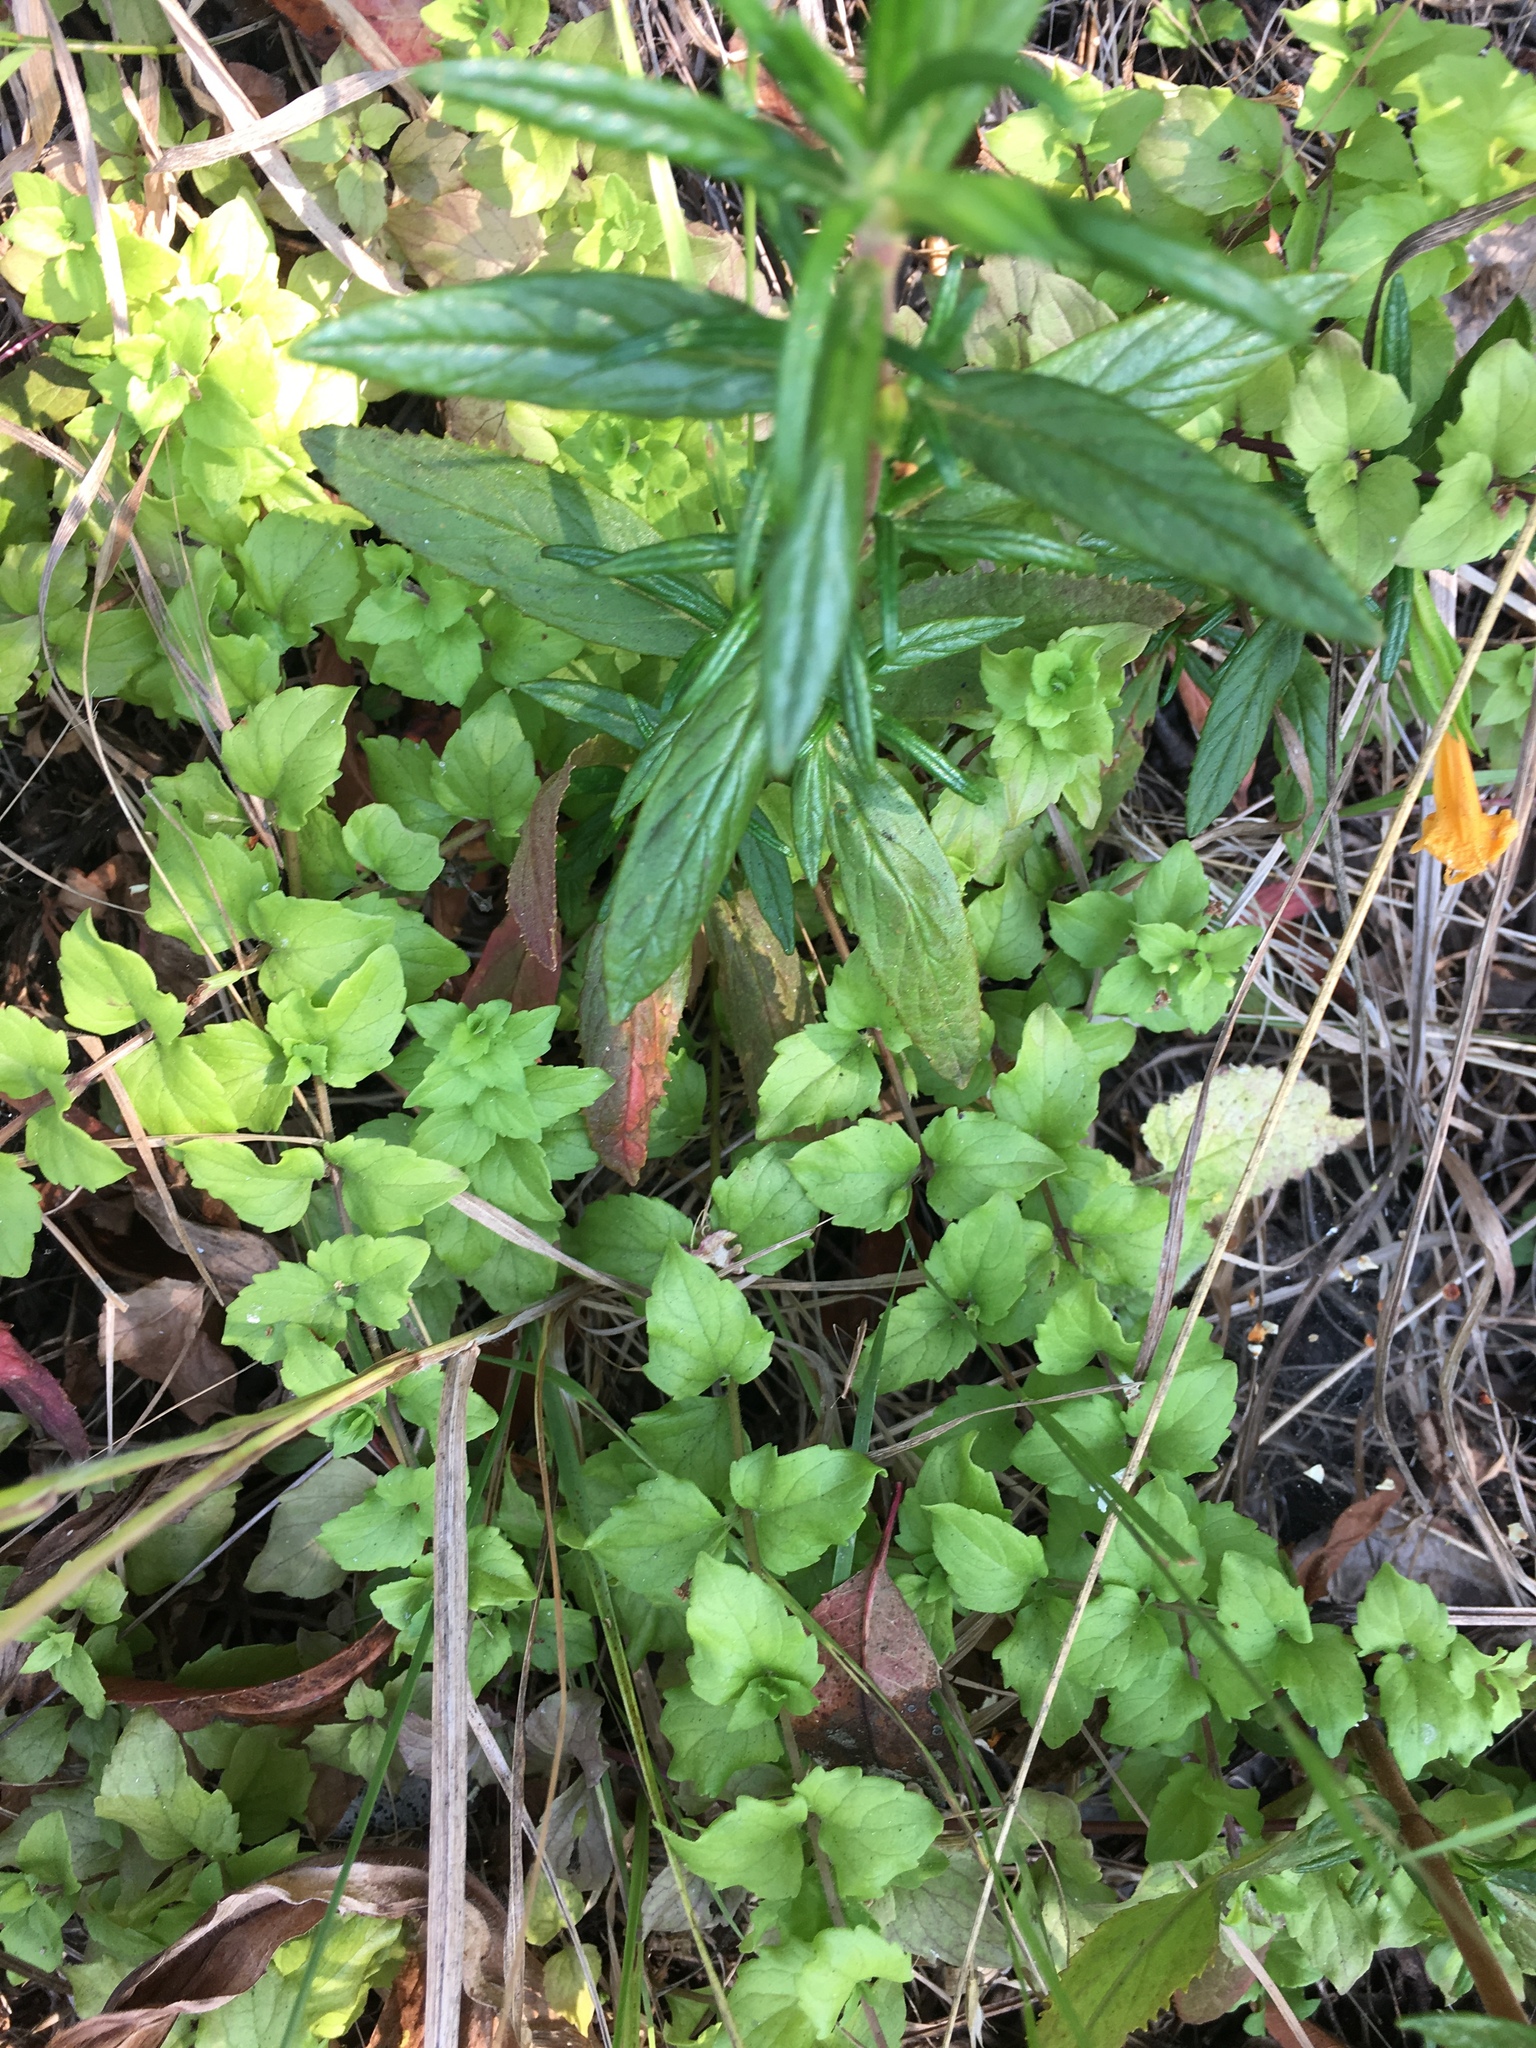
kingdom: Plantae
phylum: Tracheophyta
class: Magnoliopsida
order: Lamiales
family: Lamiaceae
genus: Micromeria
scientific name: Micromeria douglasii
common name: Yerba buena
